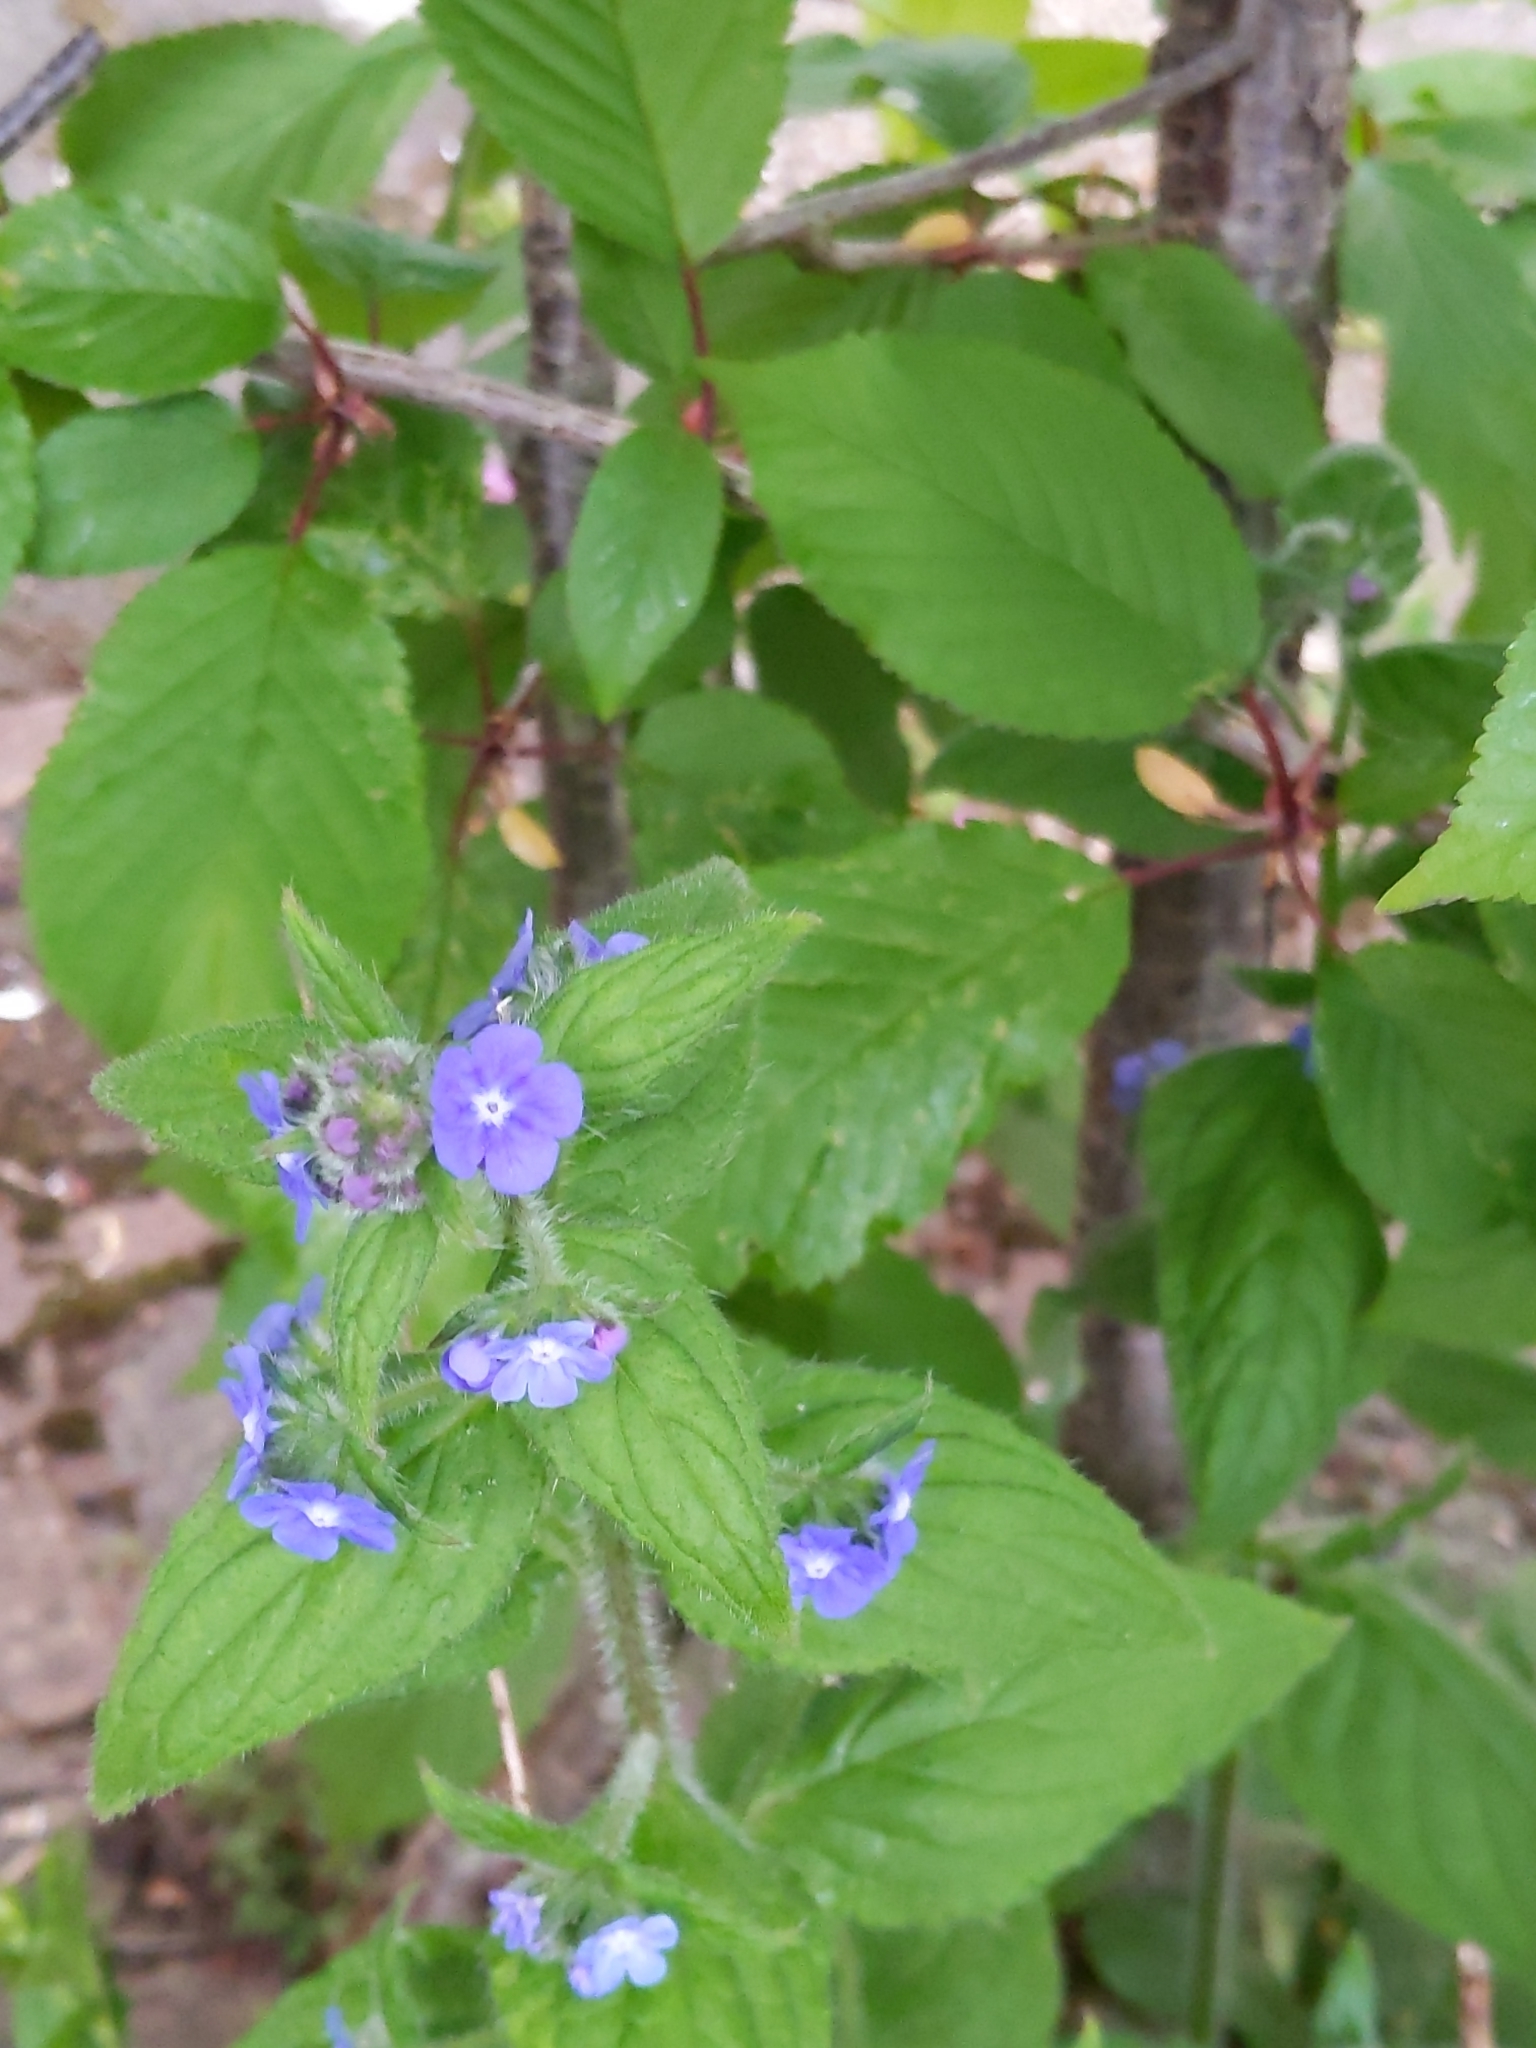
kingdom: Plantae
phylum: Tracheophyta
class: Magnoliopsida
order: Boraginales
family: Boraginaceae
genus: Pentaglottis
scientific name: Pentaglottis sempervirens
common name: Green alkanet
